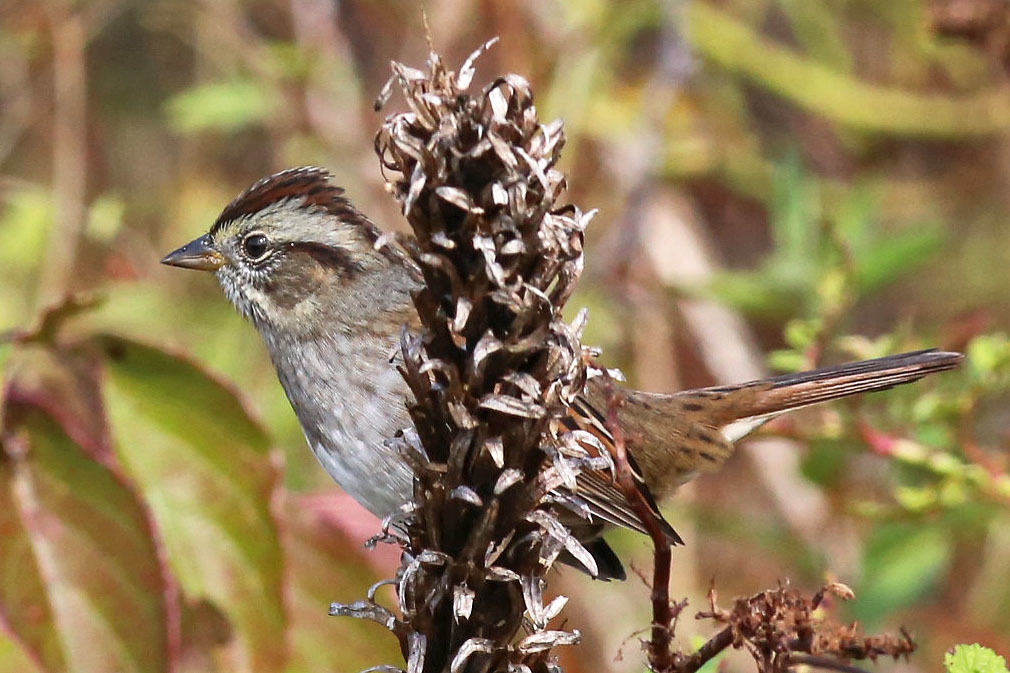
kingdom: Animalia
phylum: Chordata
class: Aves
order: Passeriformes
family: Passerellidae
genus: Melospiza
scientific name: Melospiza georgiana
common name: Swamp sparrow
